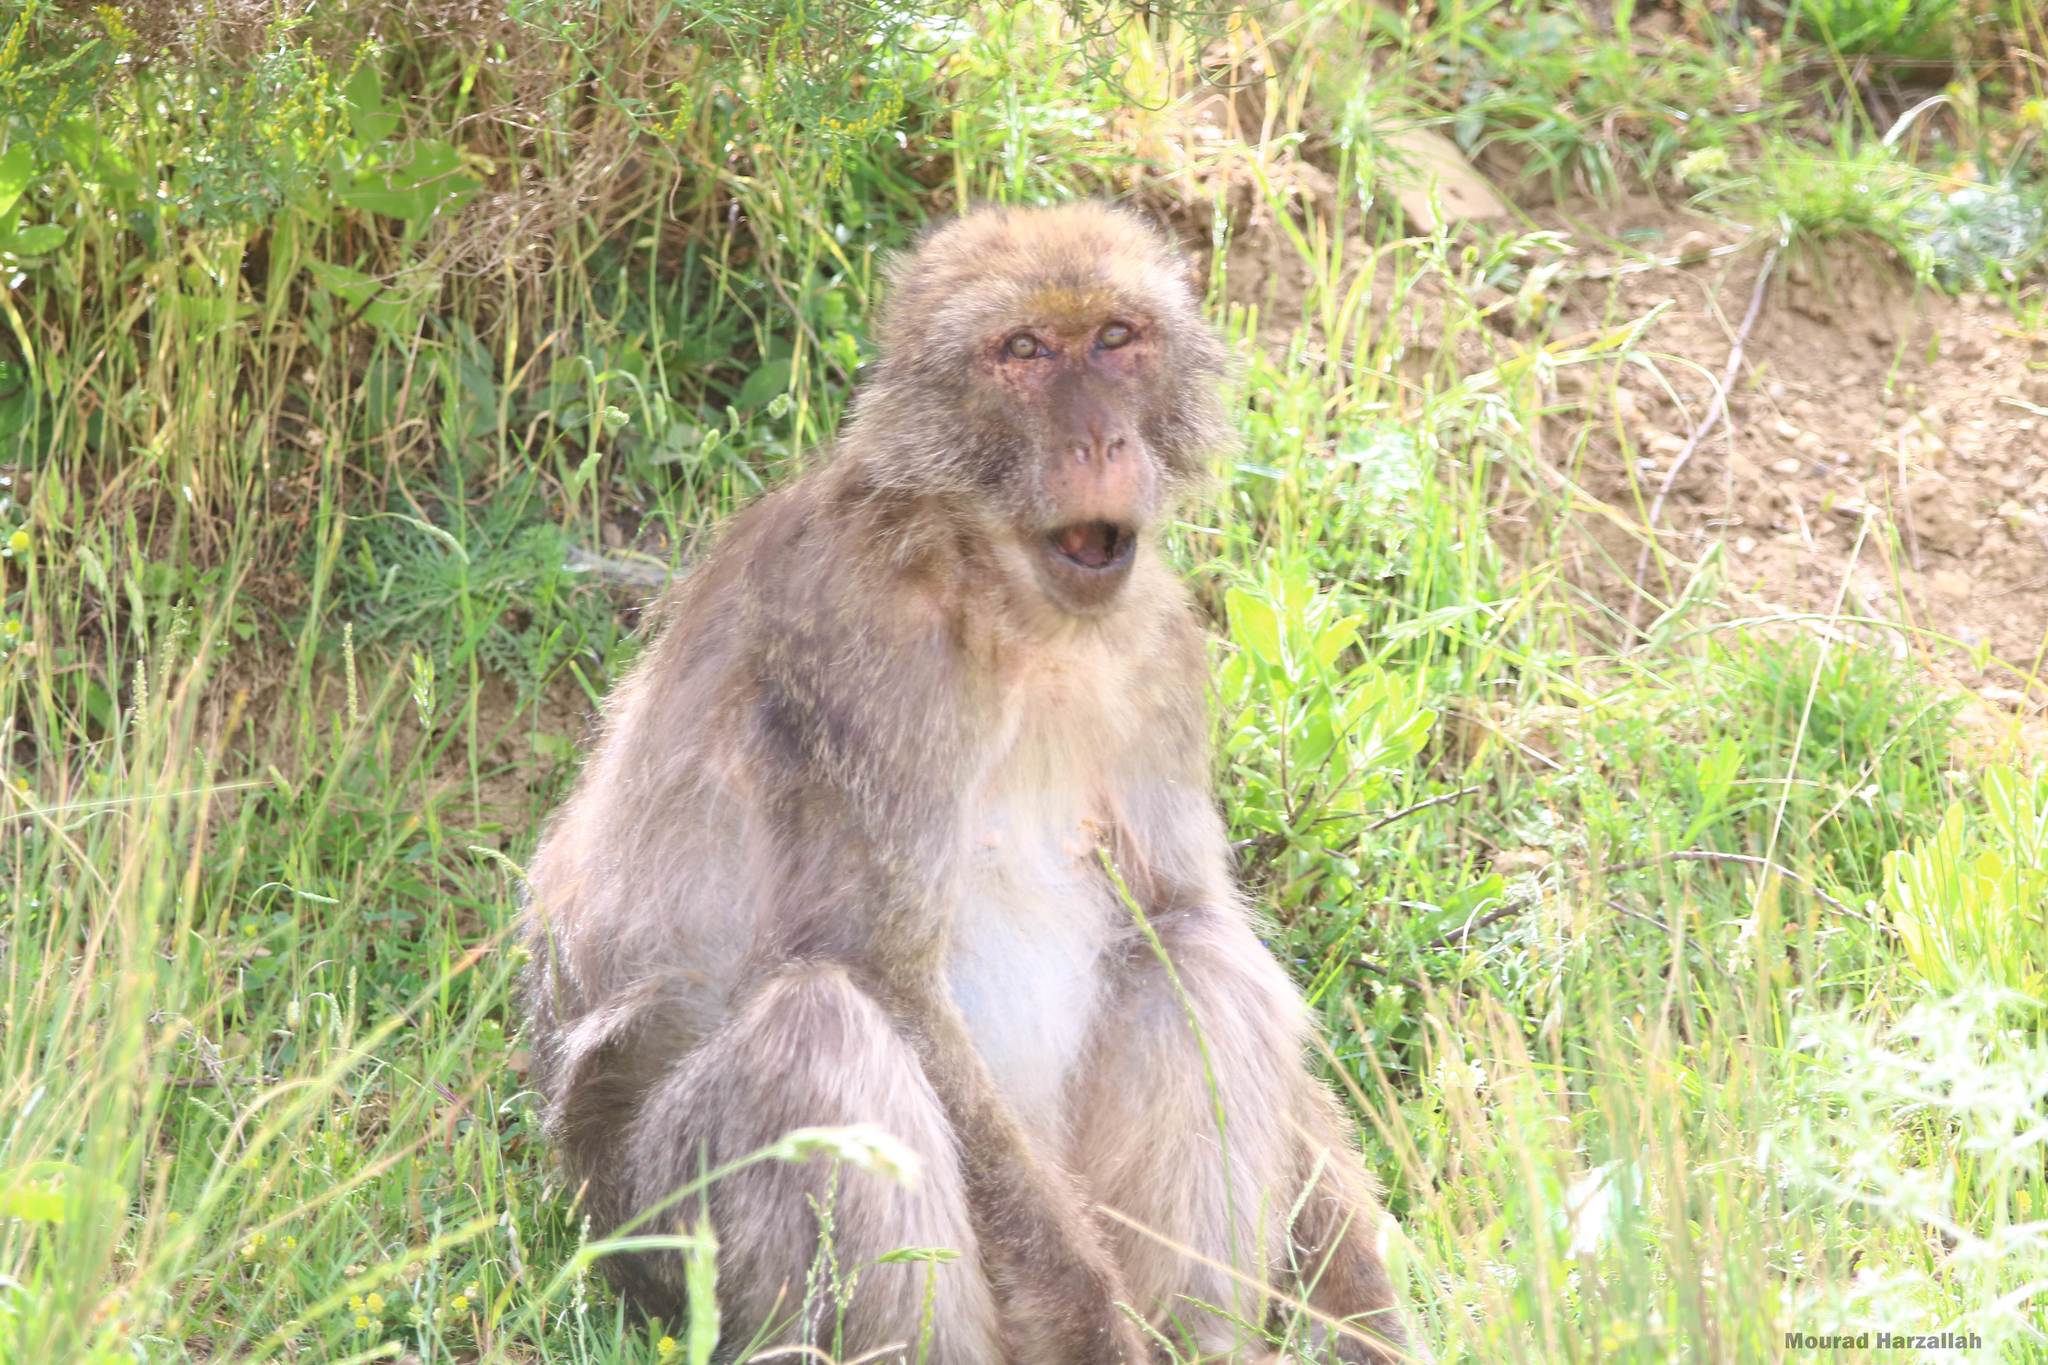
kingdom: Animalia
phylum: Chordata
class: Mammalia
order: Primates
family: Cercopithecidae
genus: Macaca
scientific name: Macaca sylvanus
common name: Barbary macaque
